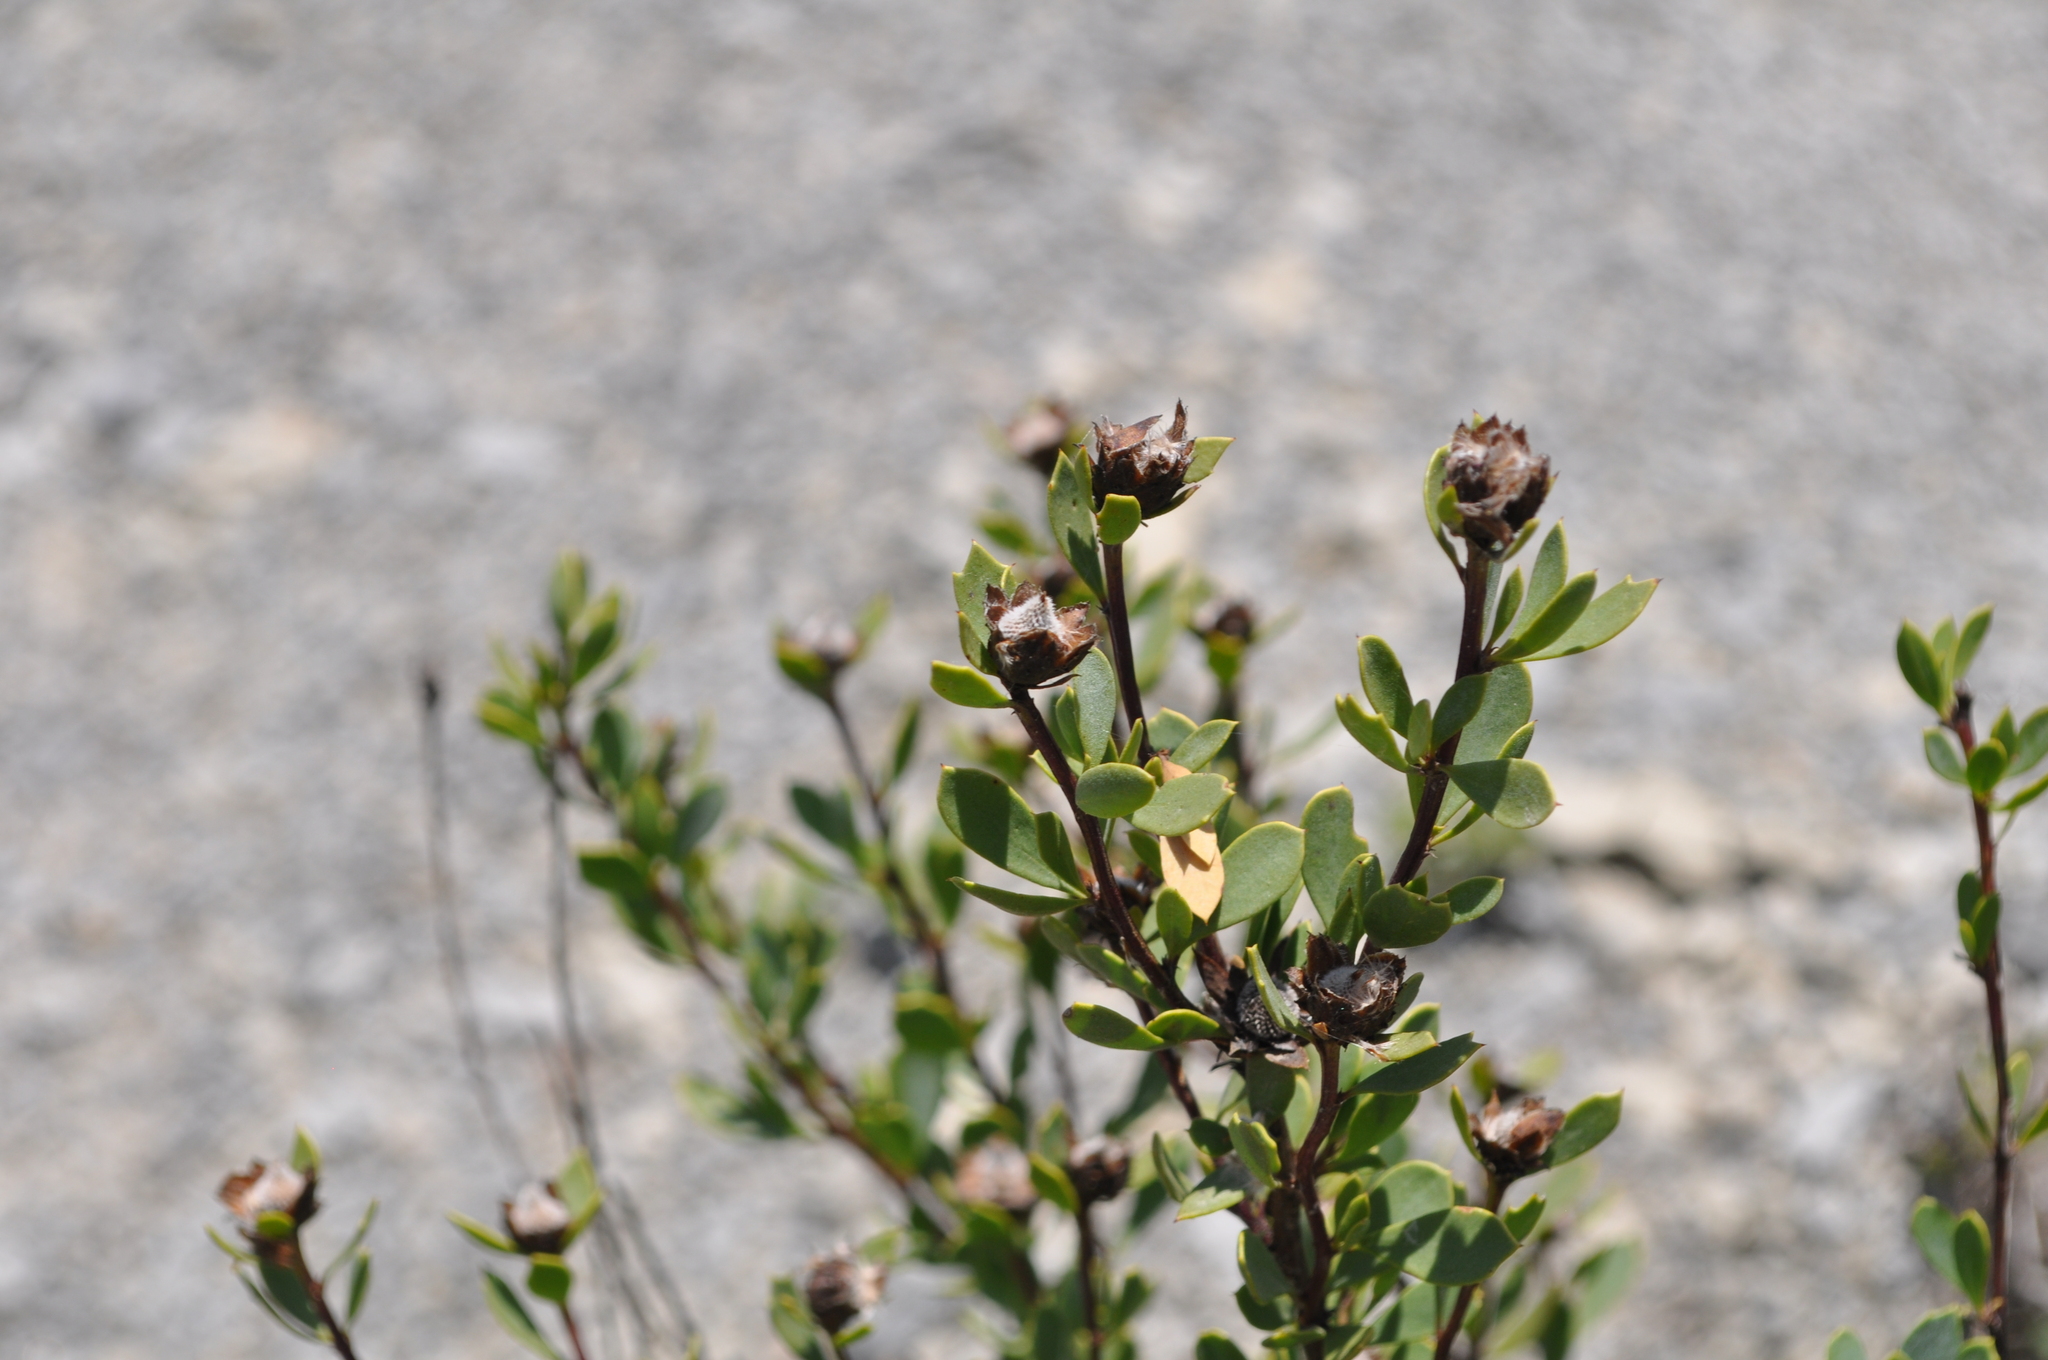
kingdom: Plantae
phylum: Tracheophyta
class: Magnoliopsida
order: Lamiales
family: Plantaginaceae
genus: Globularia
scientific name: Globularia alypum
